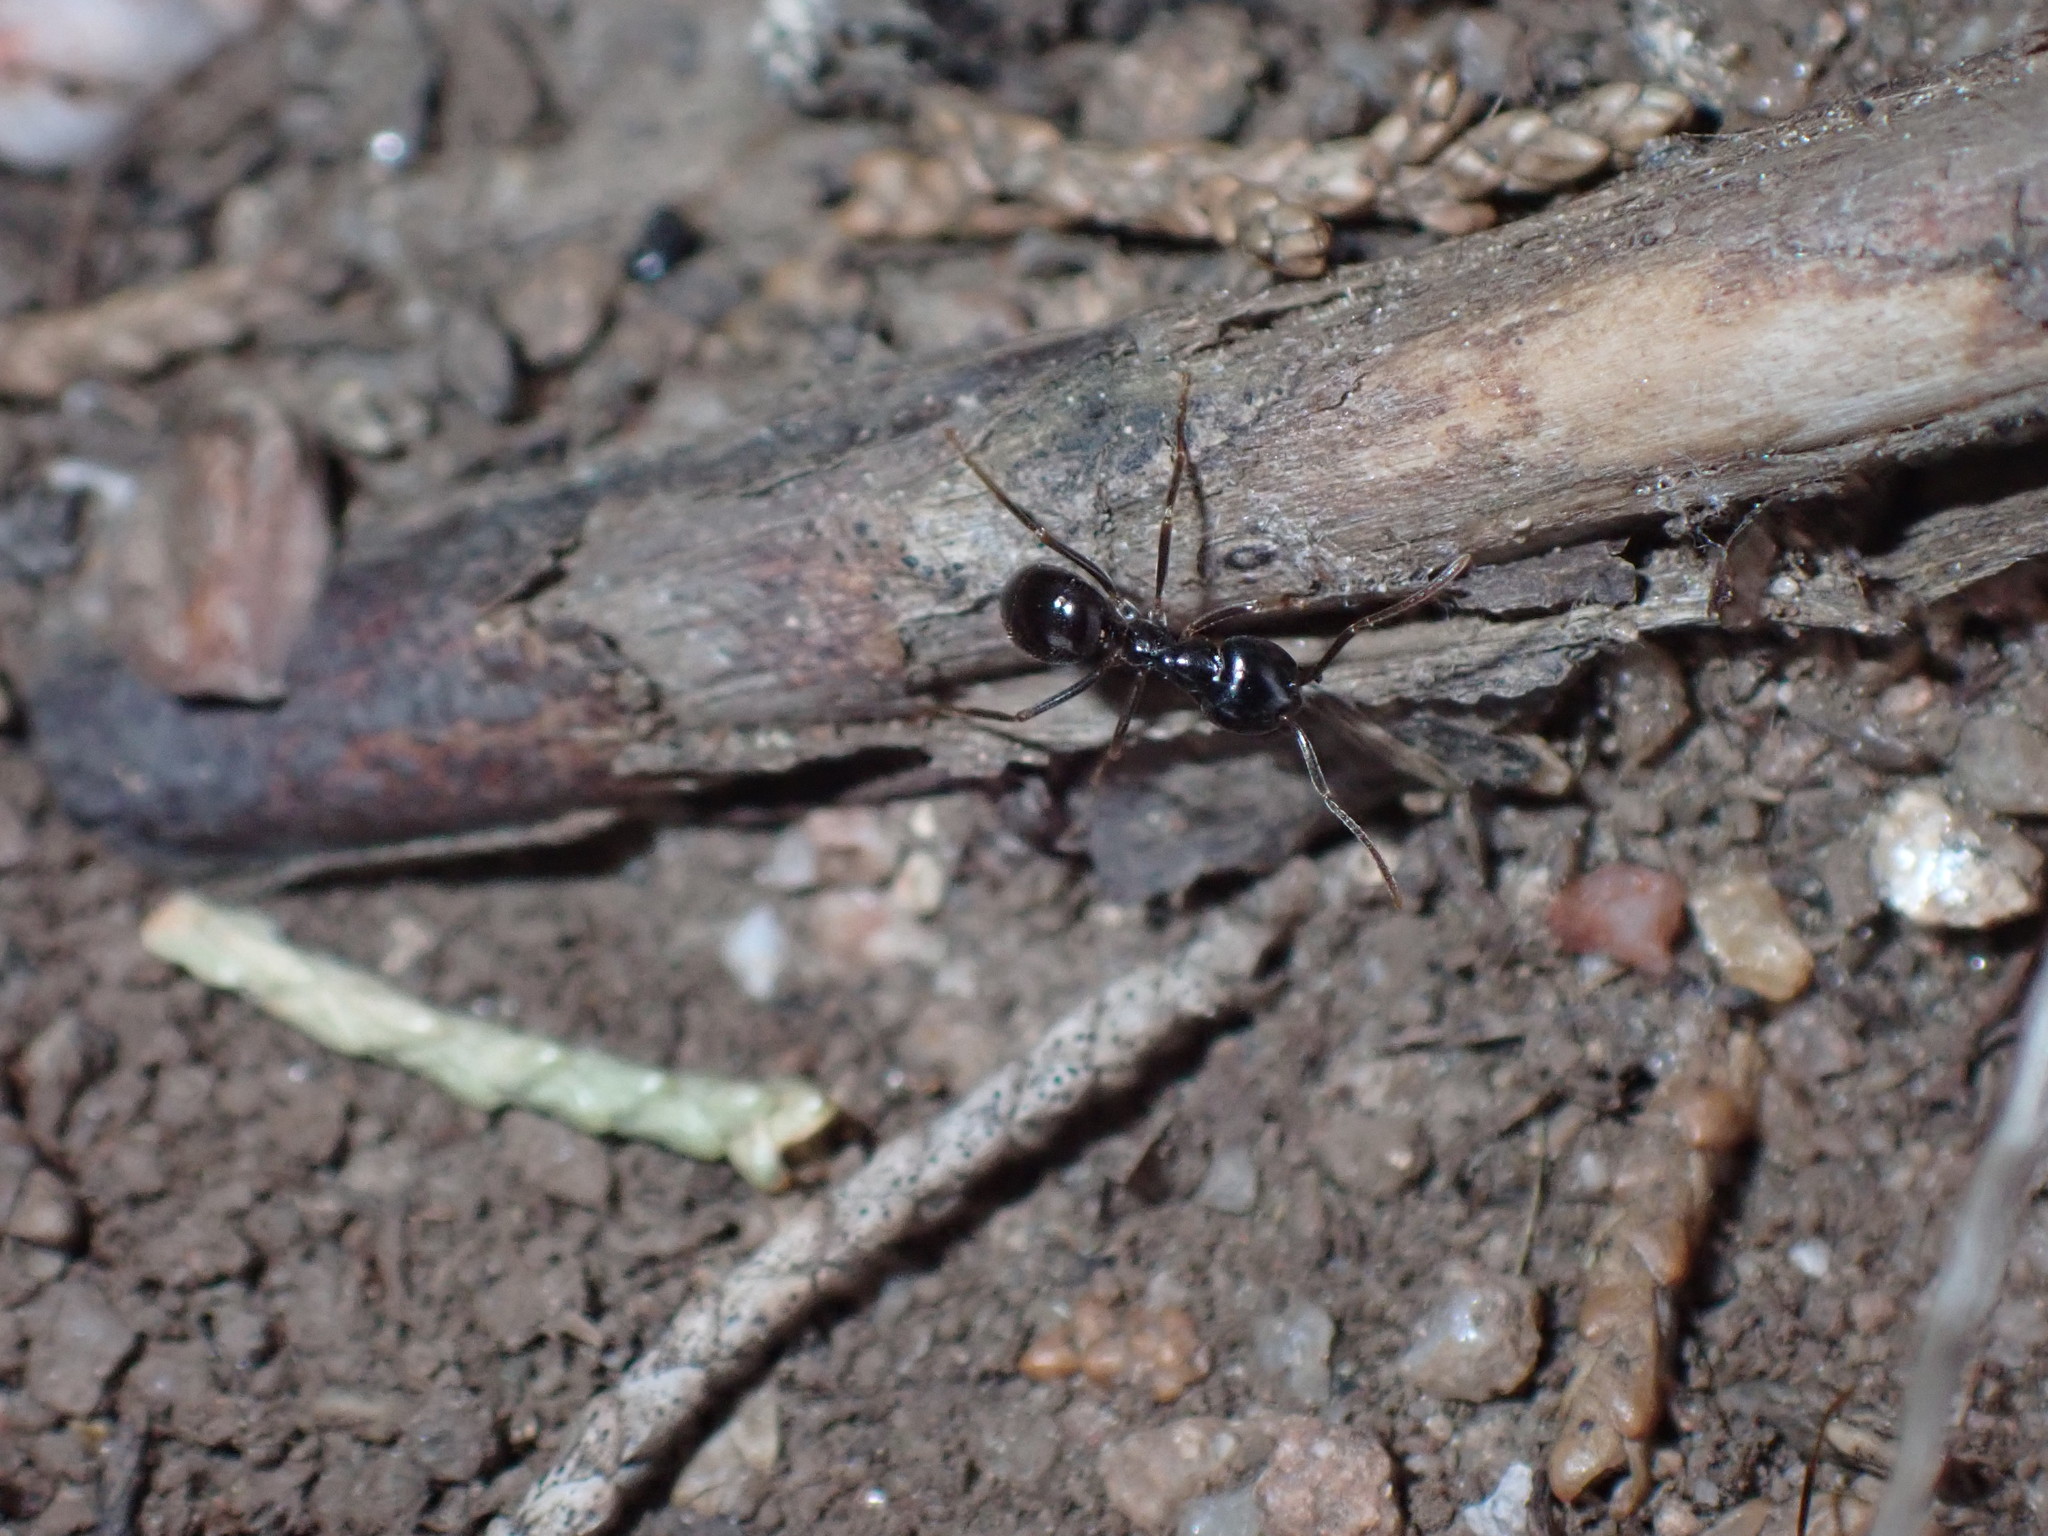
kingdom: Animalia
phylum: Arthropoda
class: Insecta
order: Hymenoptera
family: Formicidae
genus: Lasius
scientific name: Lasius fuliginosus
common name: Jet ant
